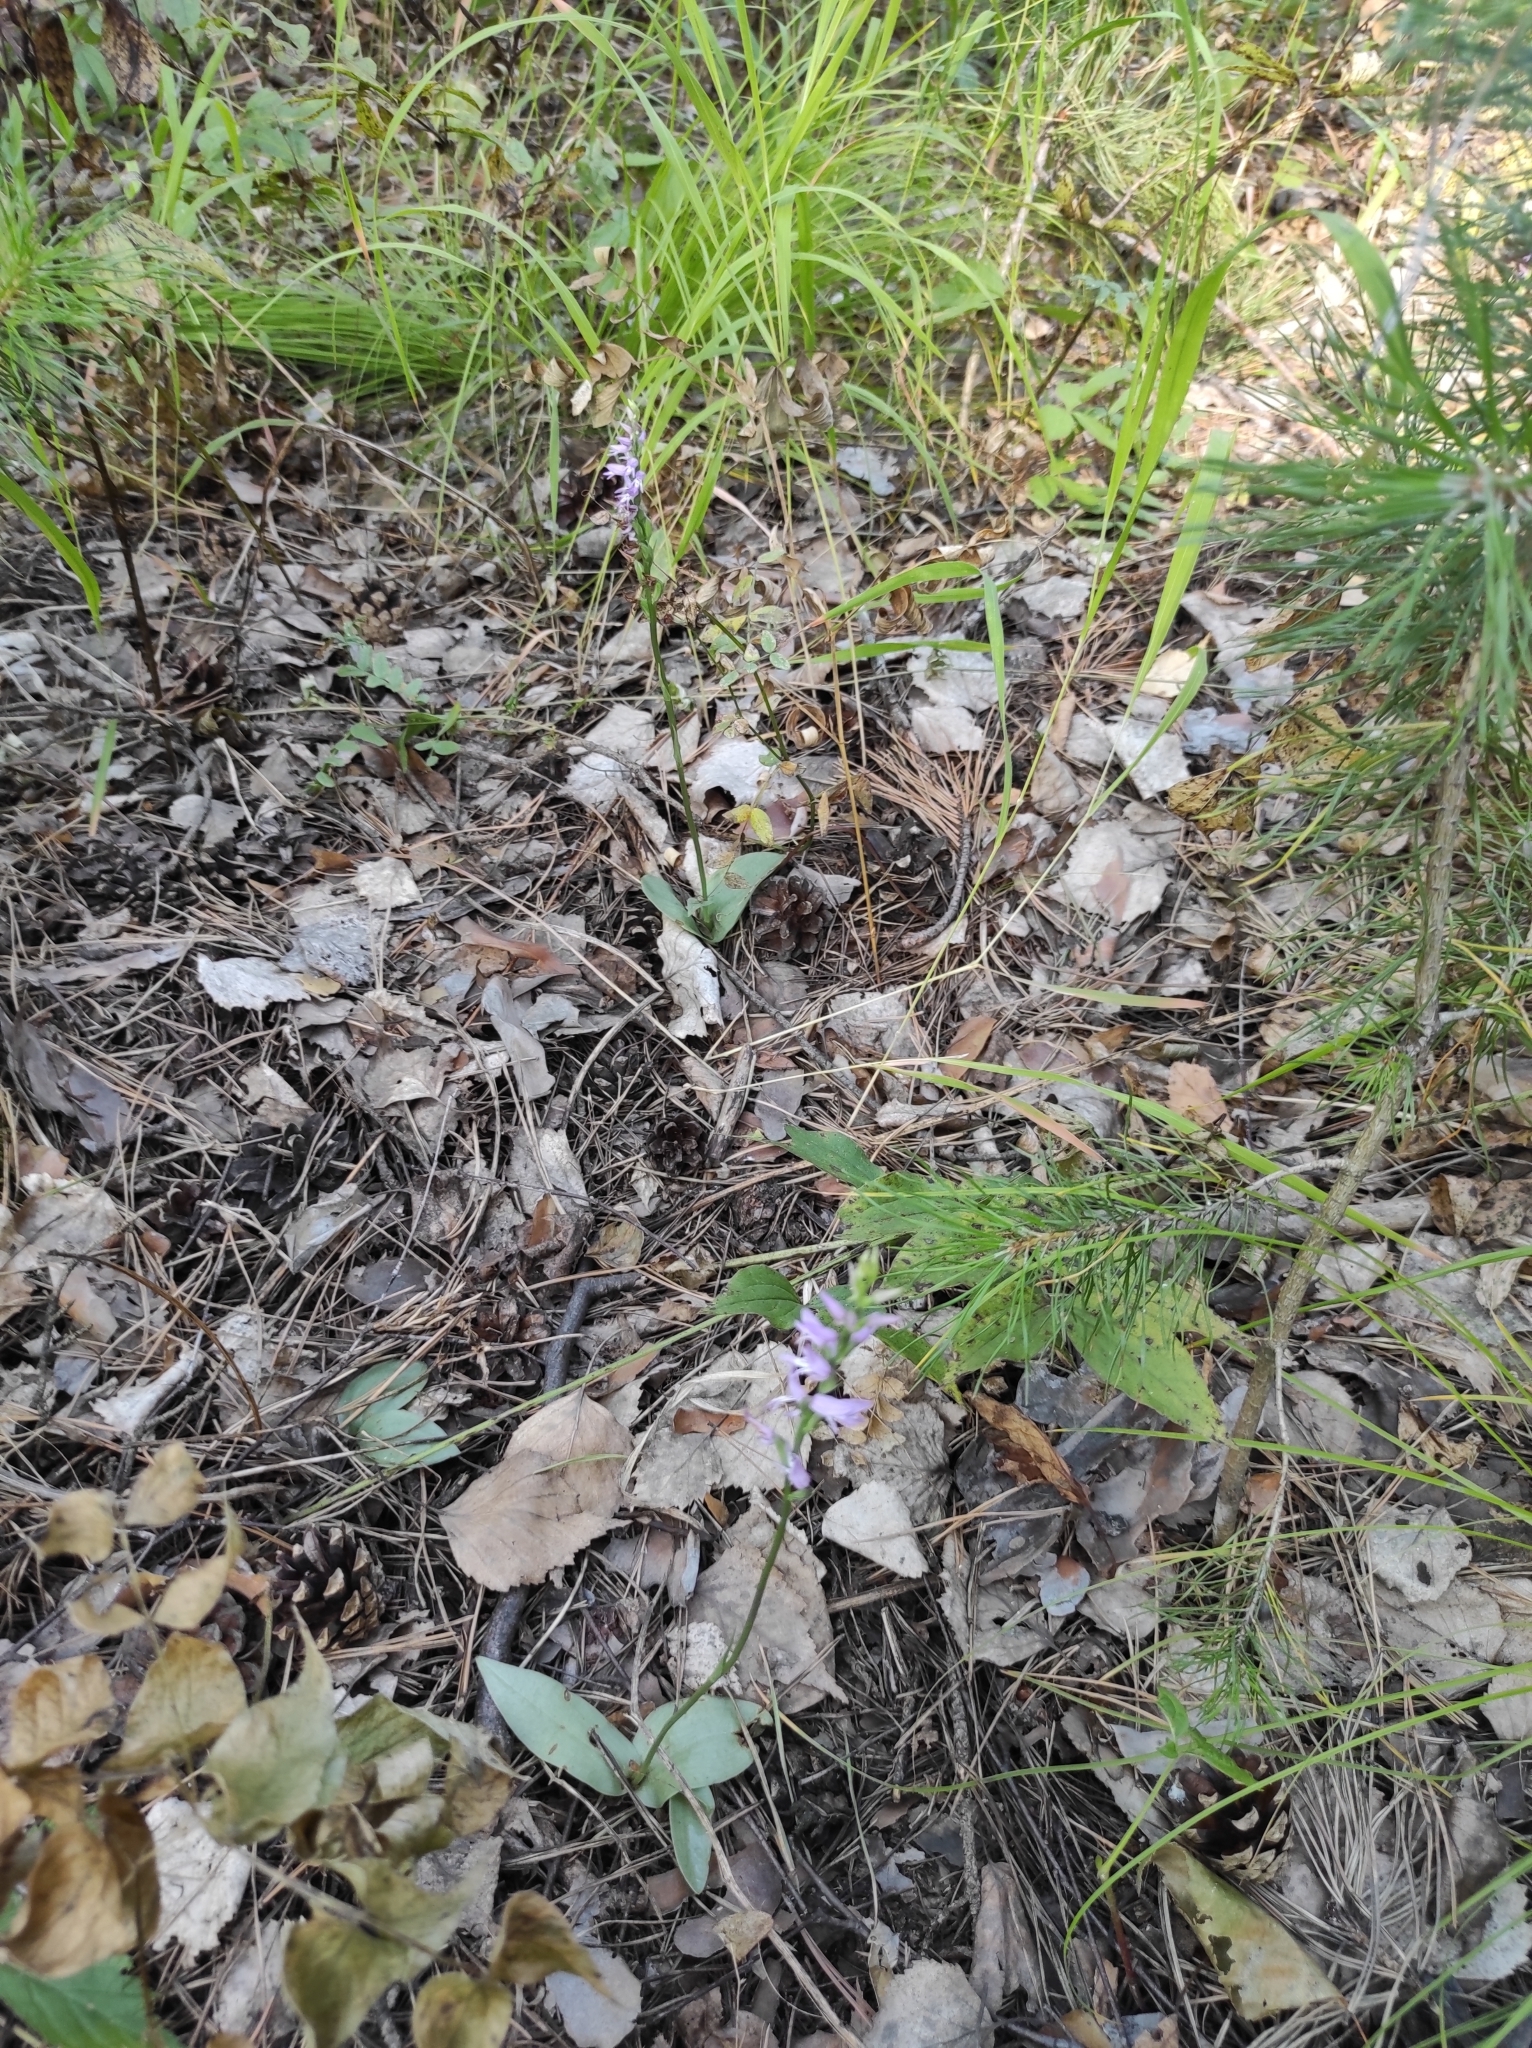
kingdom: Plantae
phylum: Tracheophyta
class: Liliopsida
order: Asparagales
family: Orchidaceae
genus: Hemipilia
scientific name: Hemipilia cucullata
